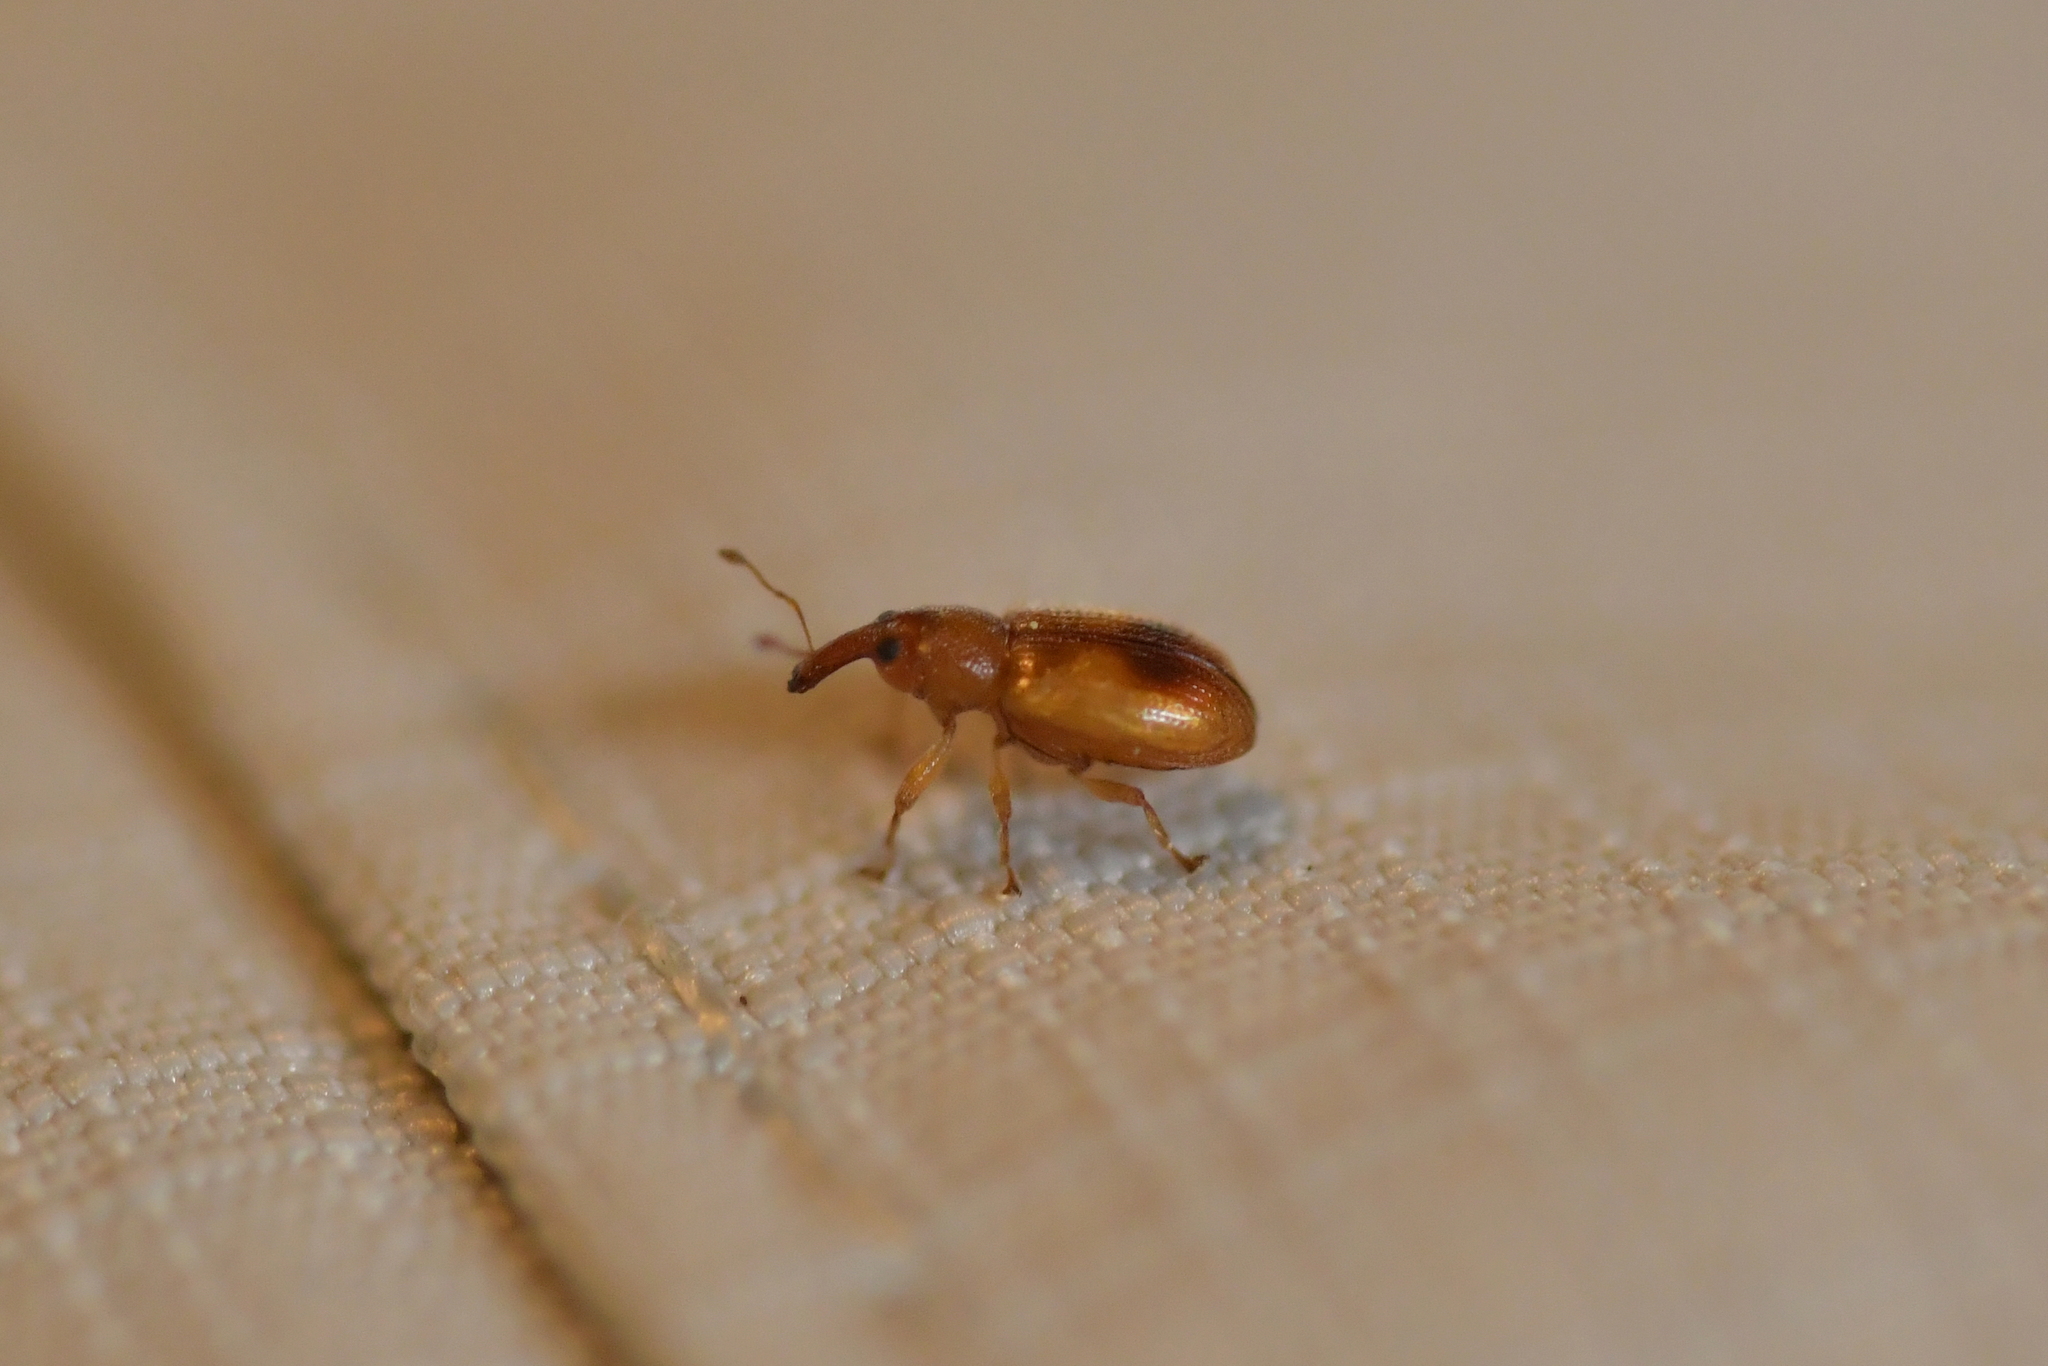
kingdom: Animalia
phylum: Arthropoda
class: Insecta
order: Coleoptera
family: Curculionidae
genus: Neomycta
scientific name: Neomycta pulicaris
